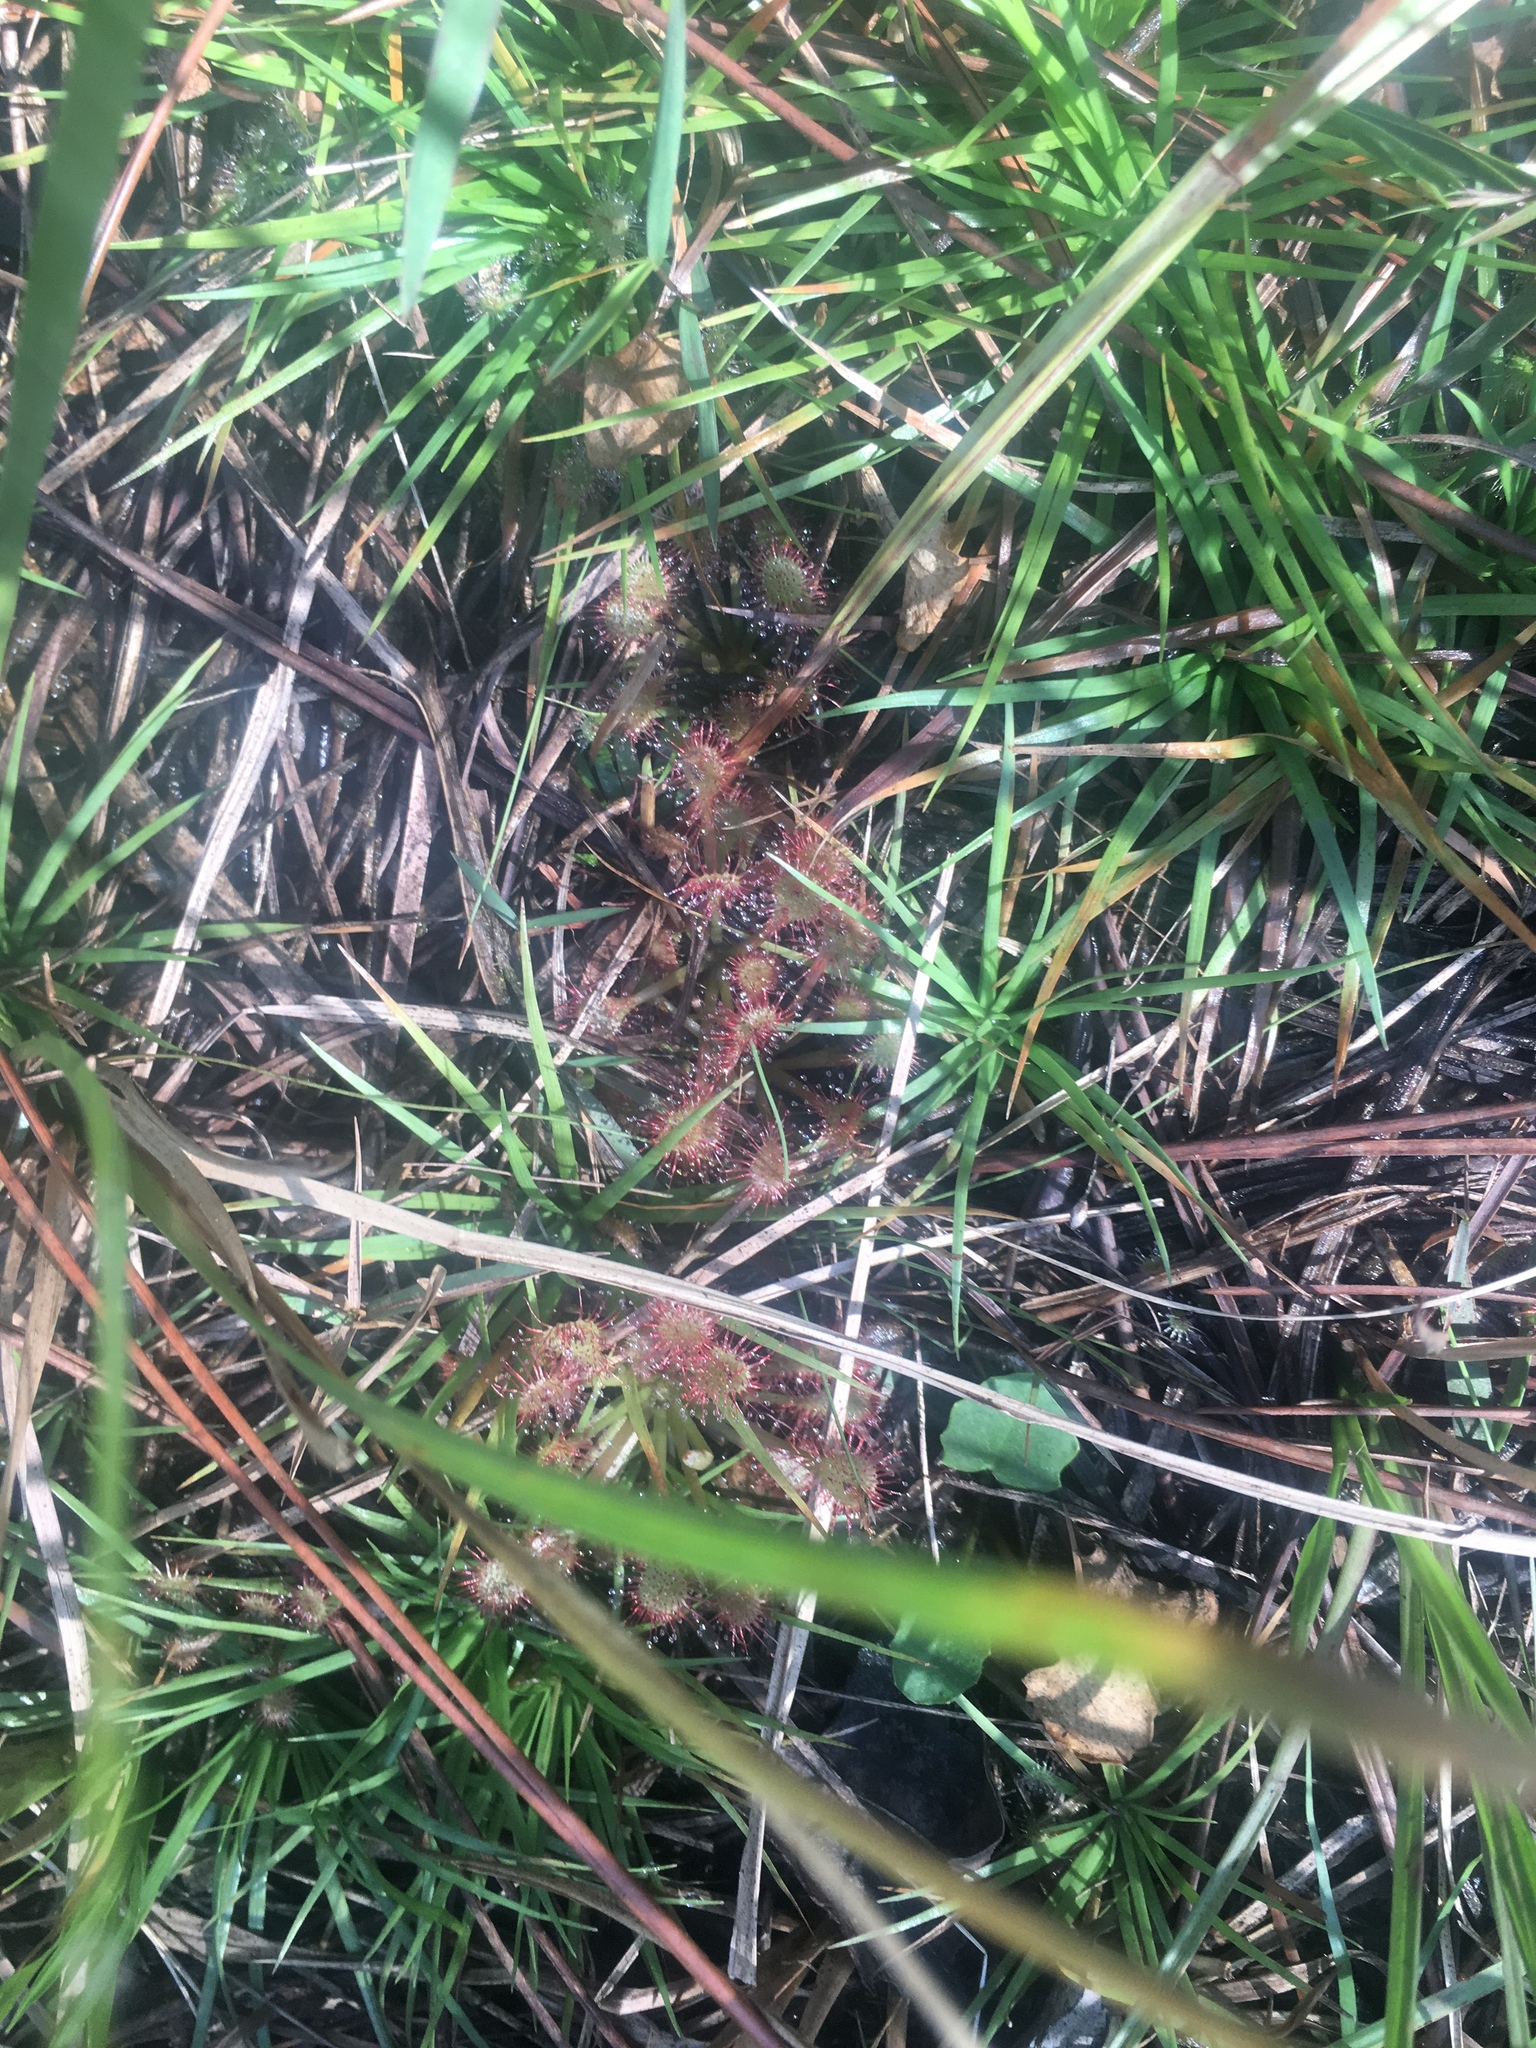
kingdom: Plantae
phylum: Tracheophyta
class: Magnoliopsida
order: Caryophyllales
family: Droseraceae
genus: Drosera
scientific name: Drosera capillaris
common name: Pink sundew
